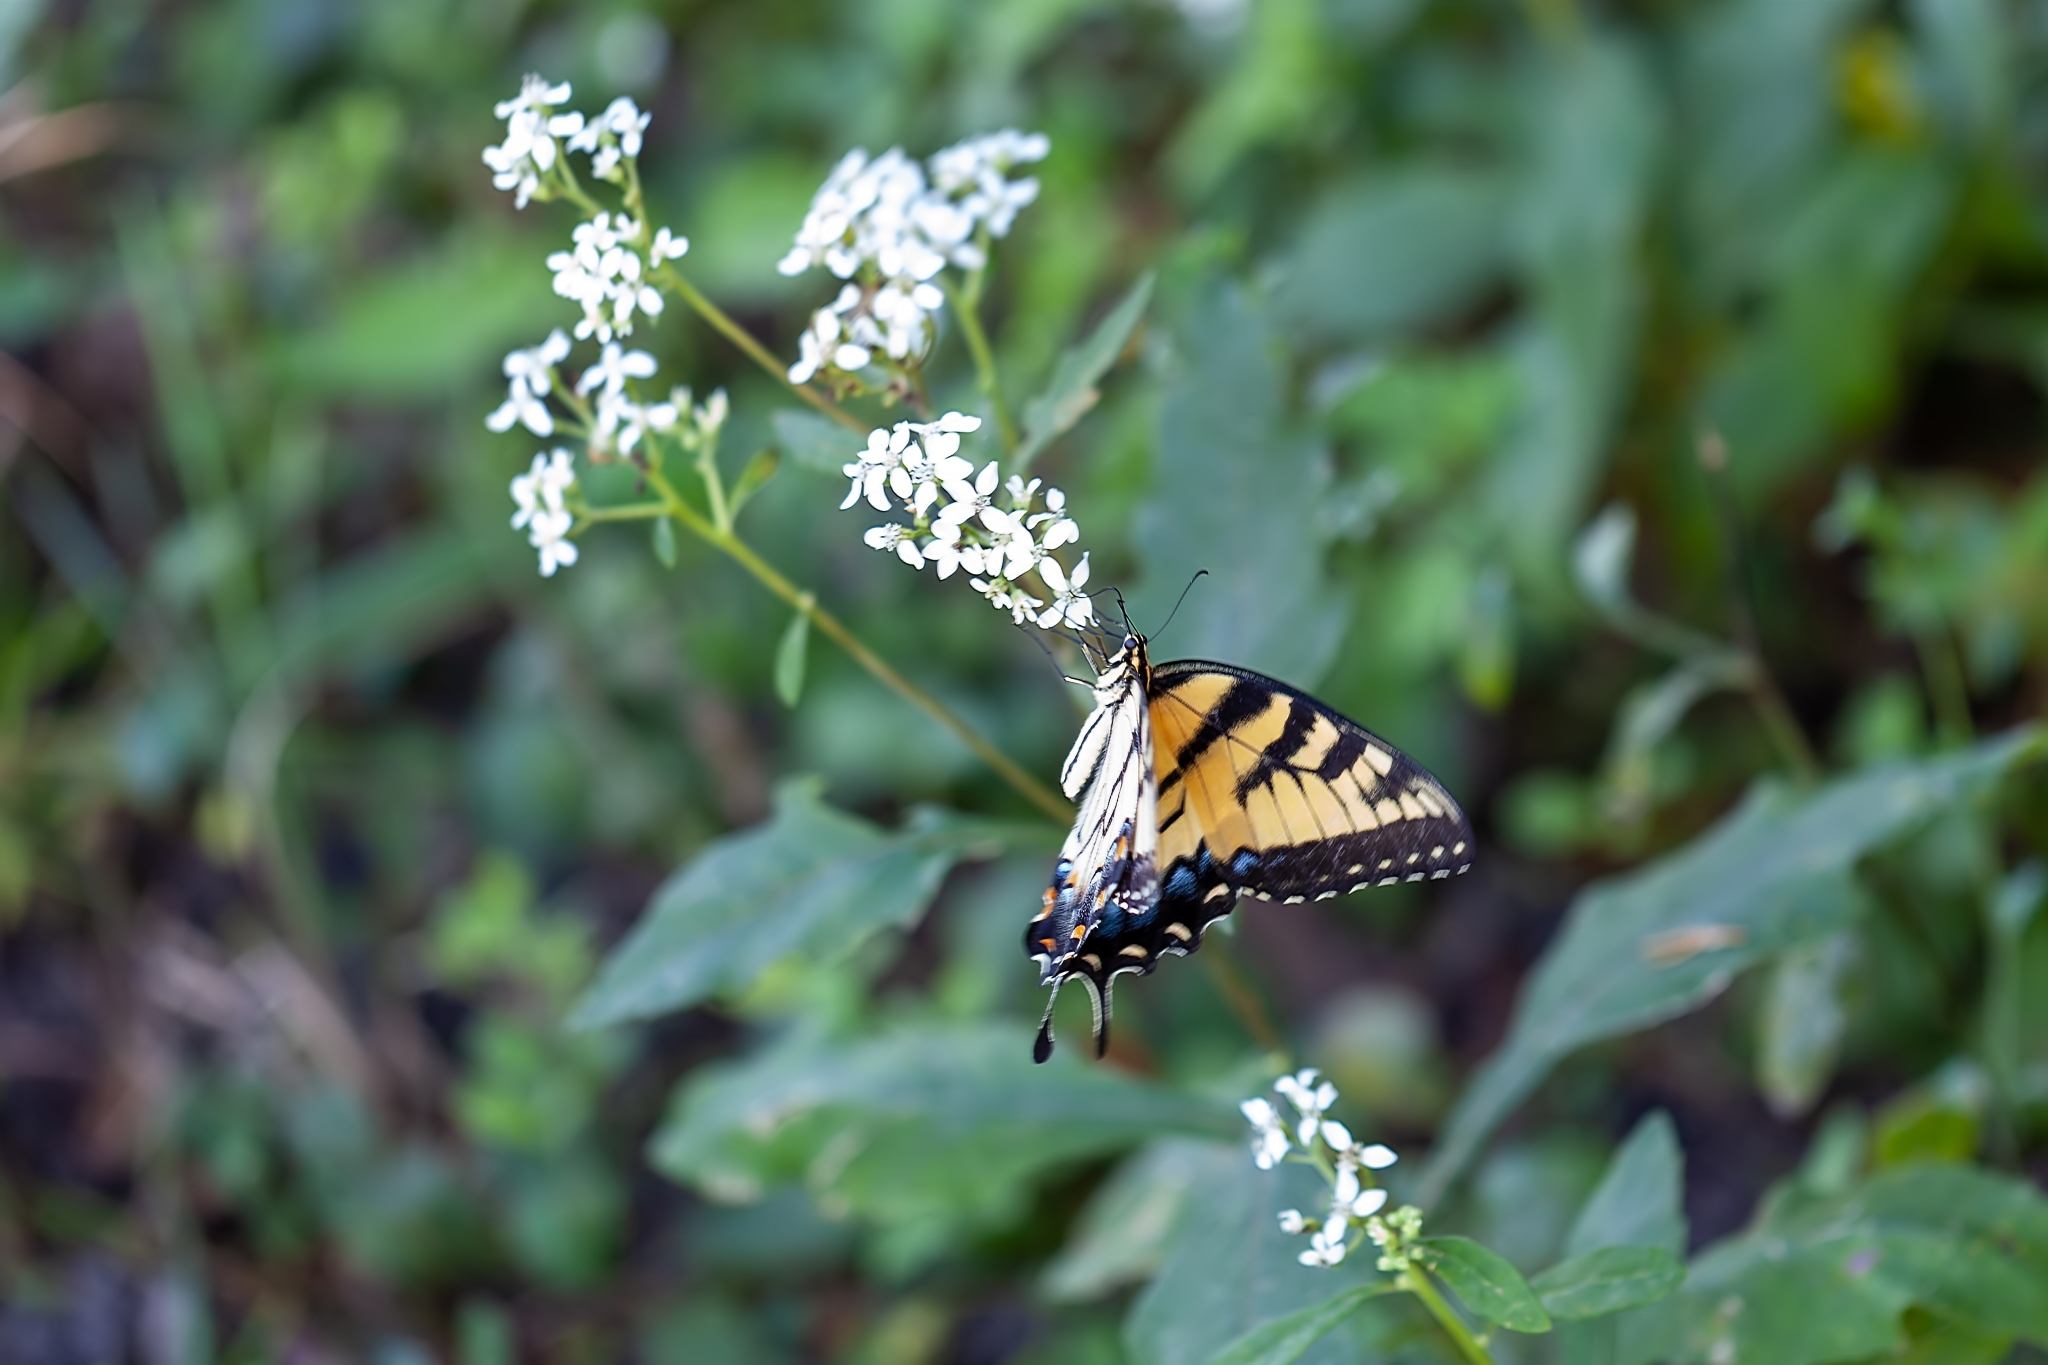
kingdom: Animalia
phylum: Arthropoda
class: Insecta
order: Lepidoptera
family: Papilionidae
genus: Papilio
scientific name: Papilio glaucus
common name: Tiger swallowtail
